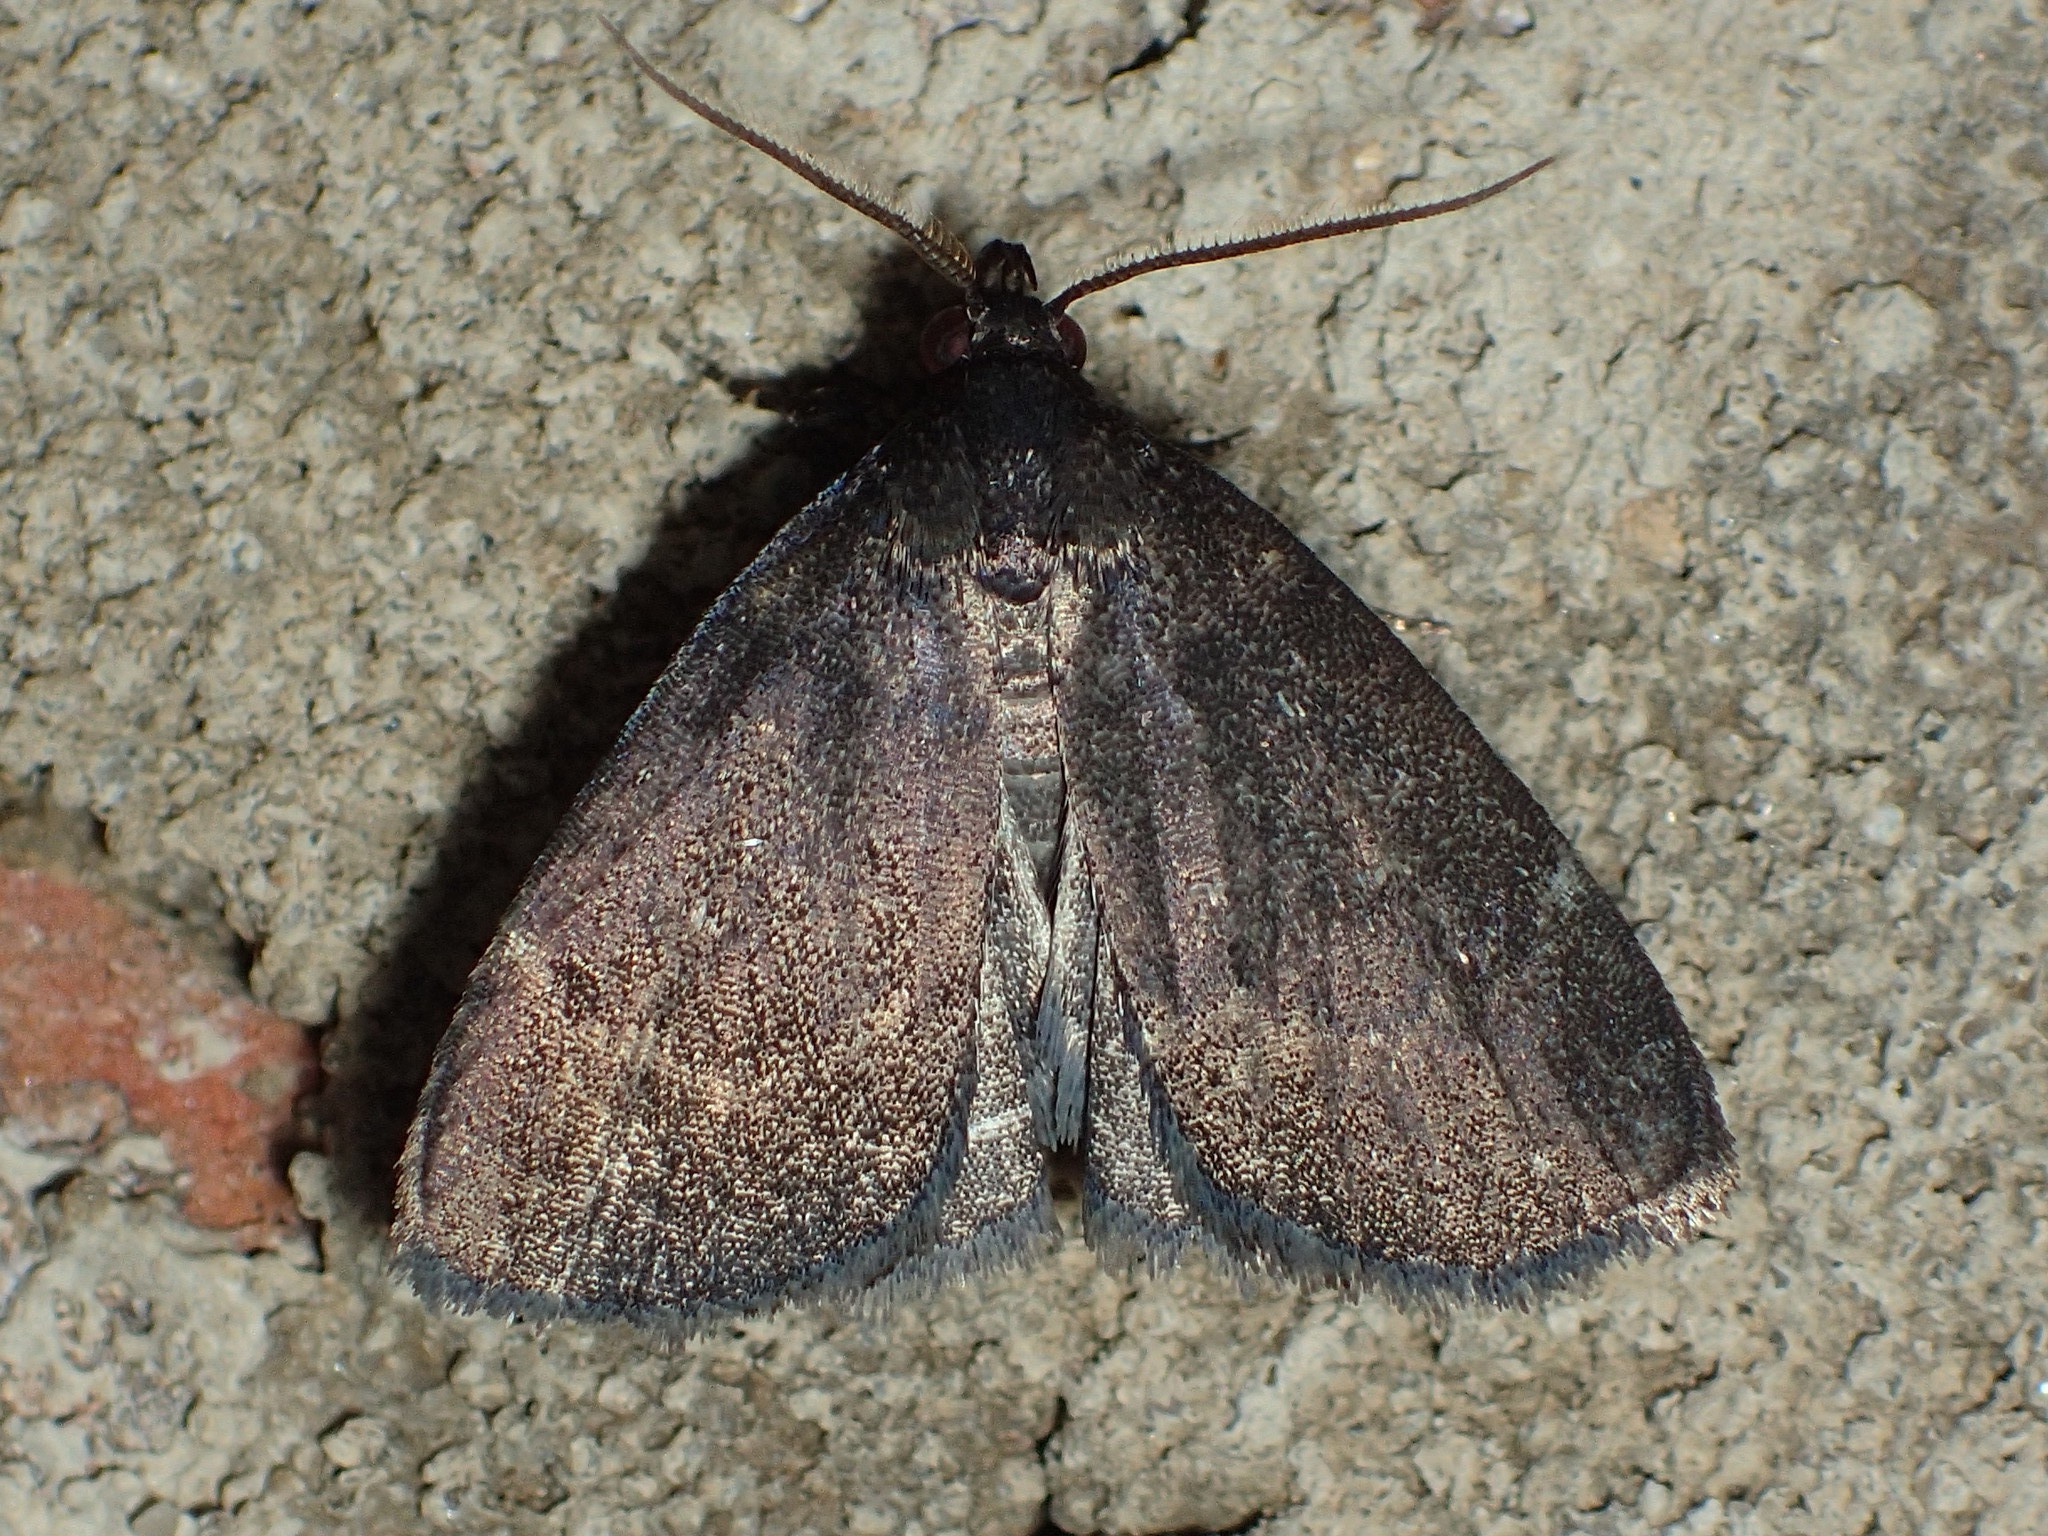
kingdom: Animalia
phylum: Arthropoda
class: Insecta
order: Lepidoptera
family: Erebidae
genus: Idia
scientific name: Idia rotundalis
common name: Rotund idia moth
